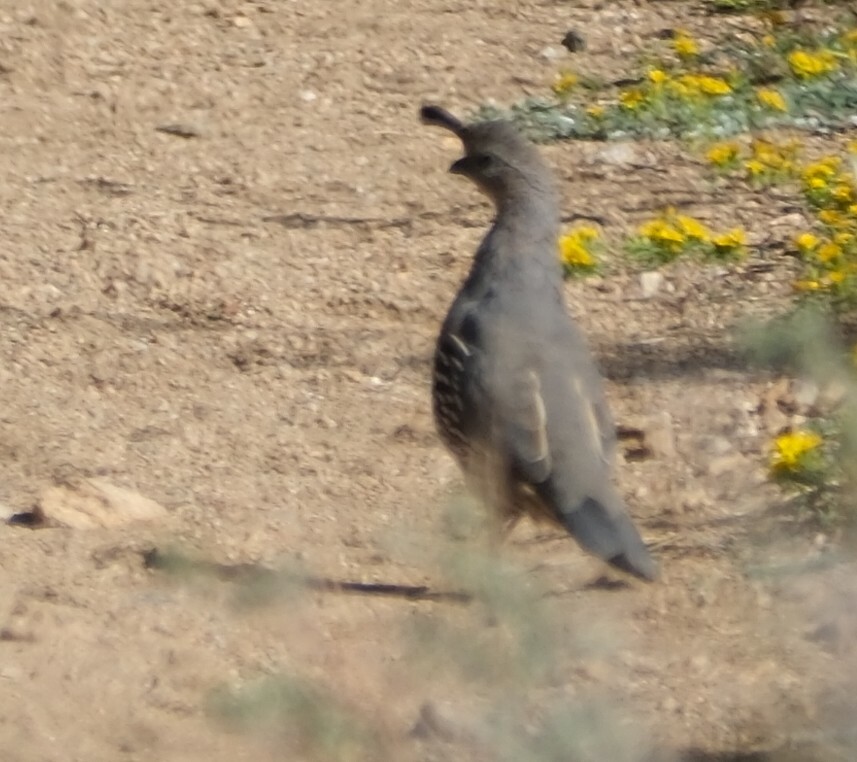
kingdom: Animalia
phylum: Chordata
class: Aves
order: Galliformes
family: Odontophoridae
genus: Callipepla
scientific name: Callipepla gambelii
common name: Gambel's quail
